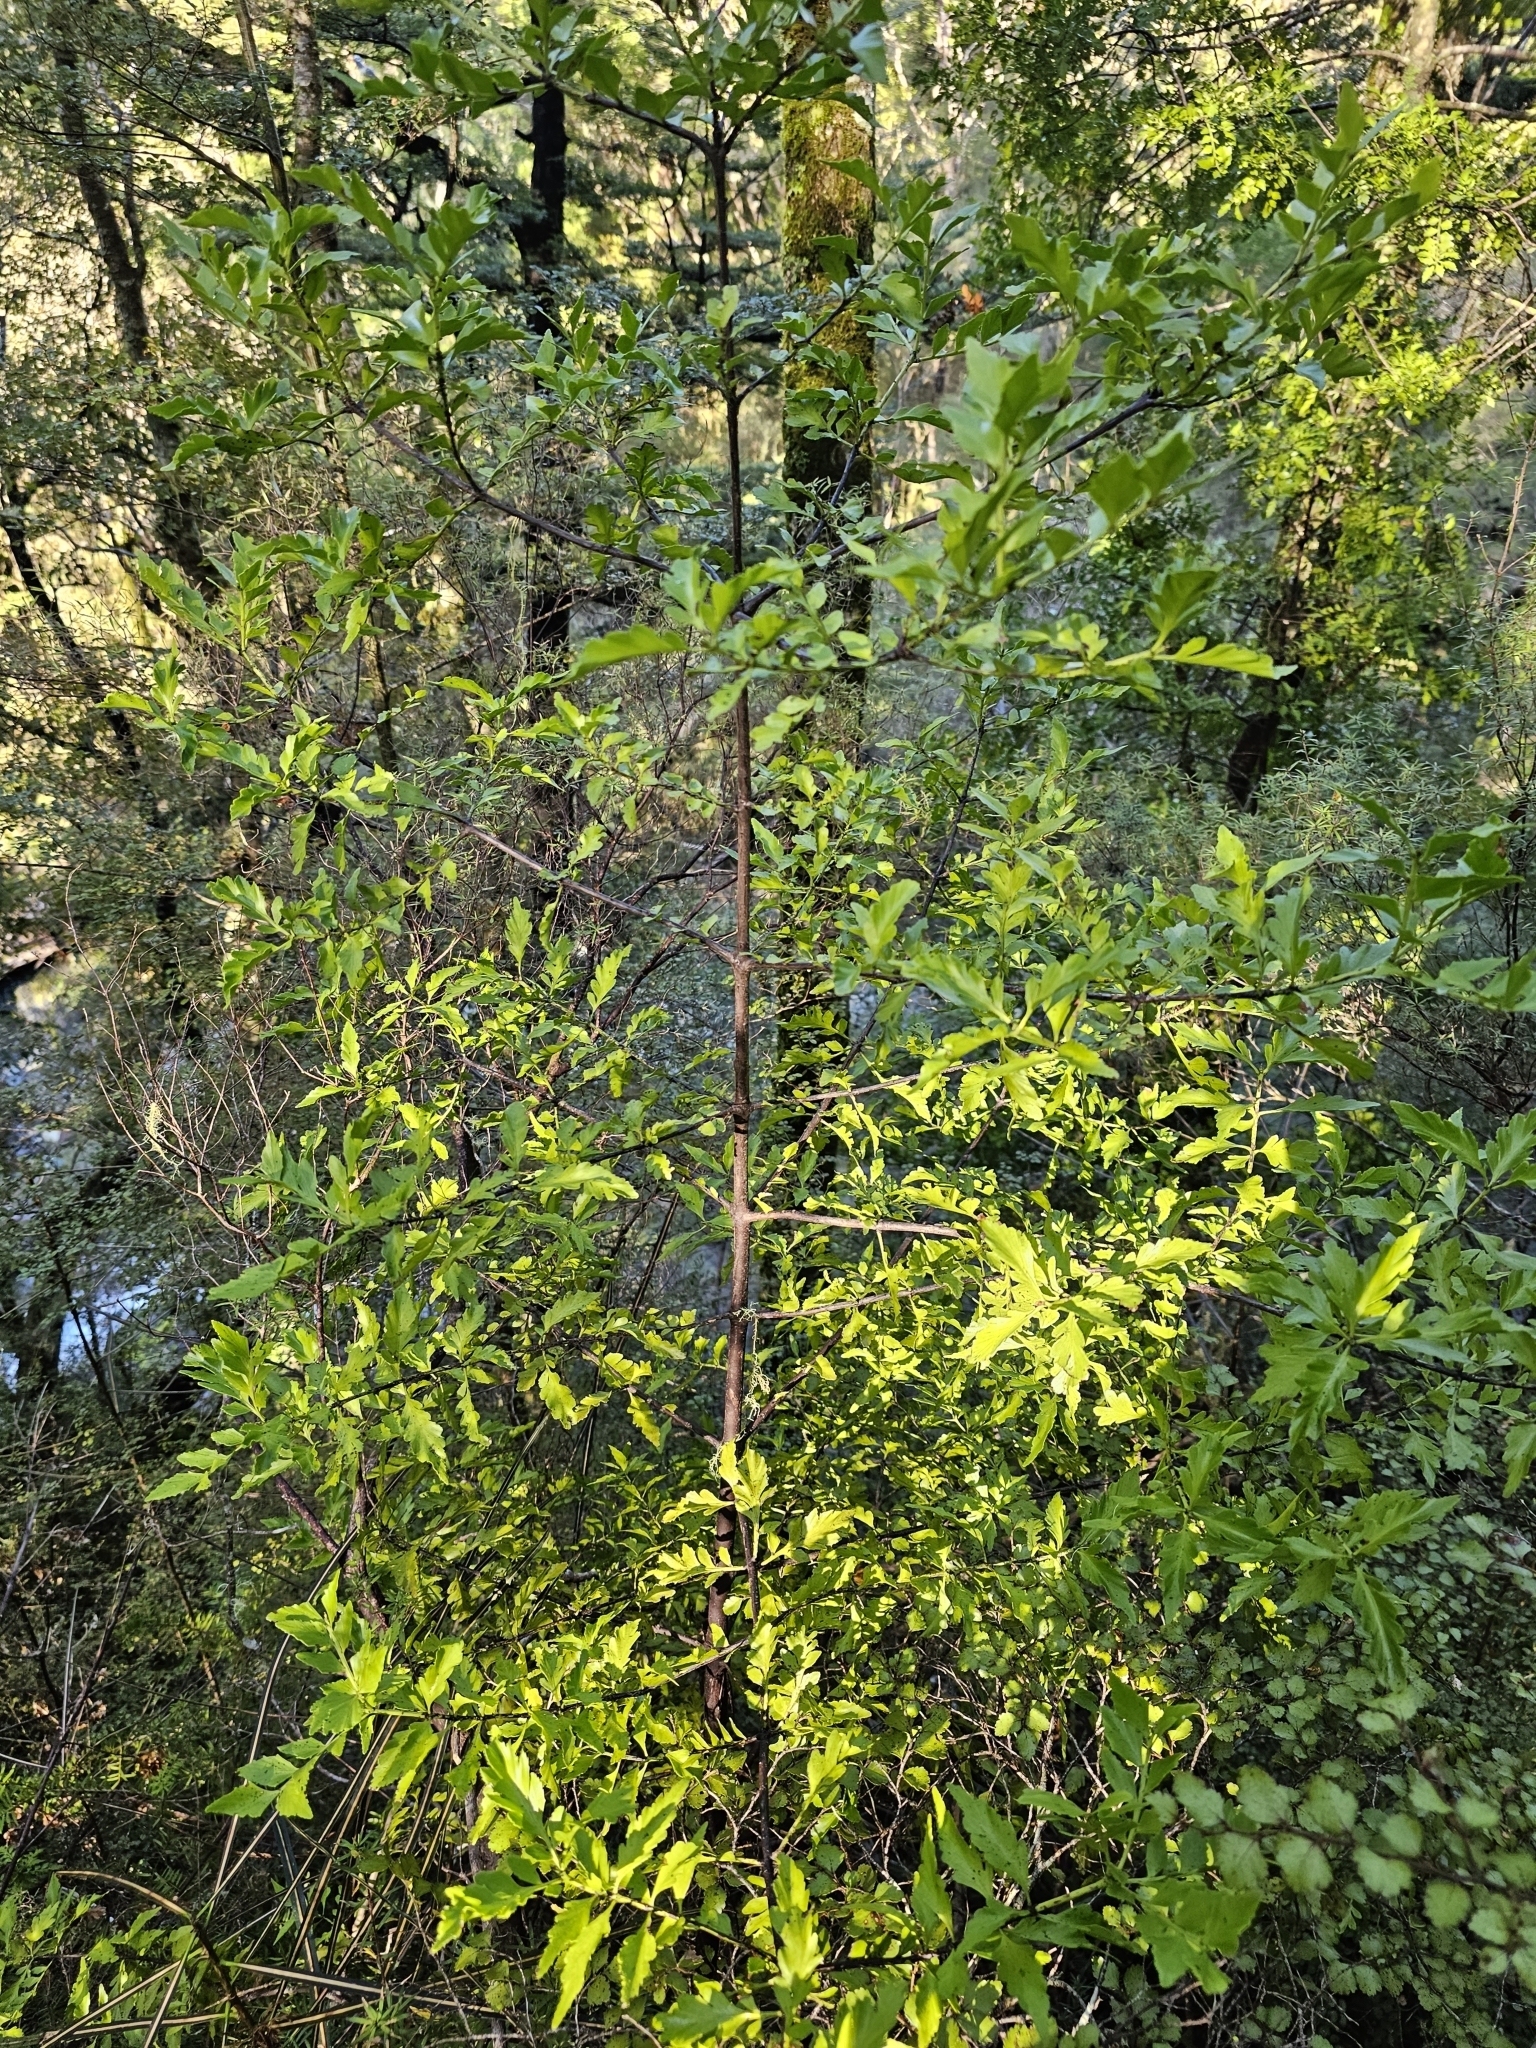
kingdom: Plantae
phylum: Tracheophyta
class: Pinopsida
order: Pinales
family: Phyllocladaceae
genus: Phyllocladus
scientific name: Phyllocladus trichomanoides
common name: Celery pine
